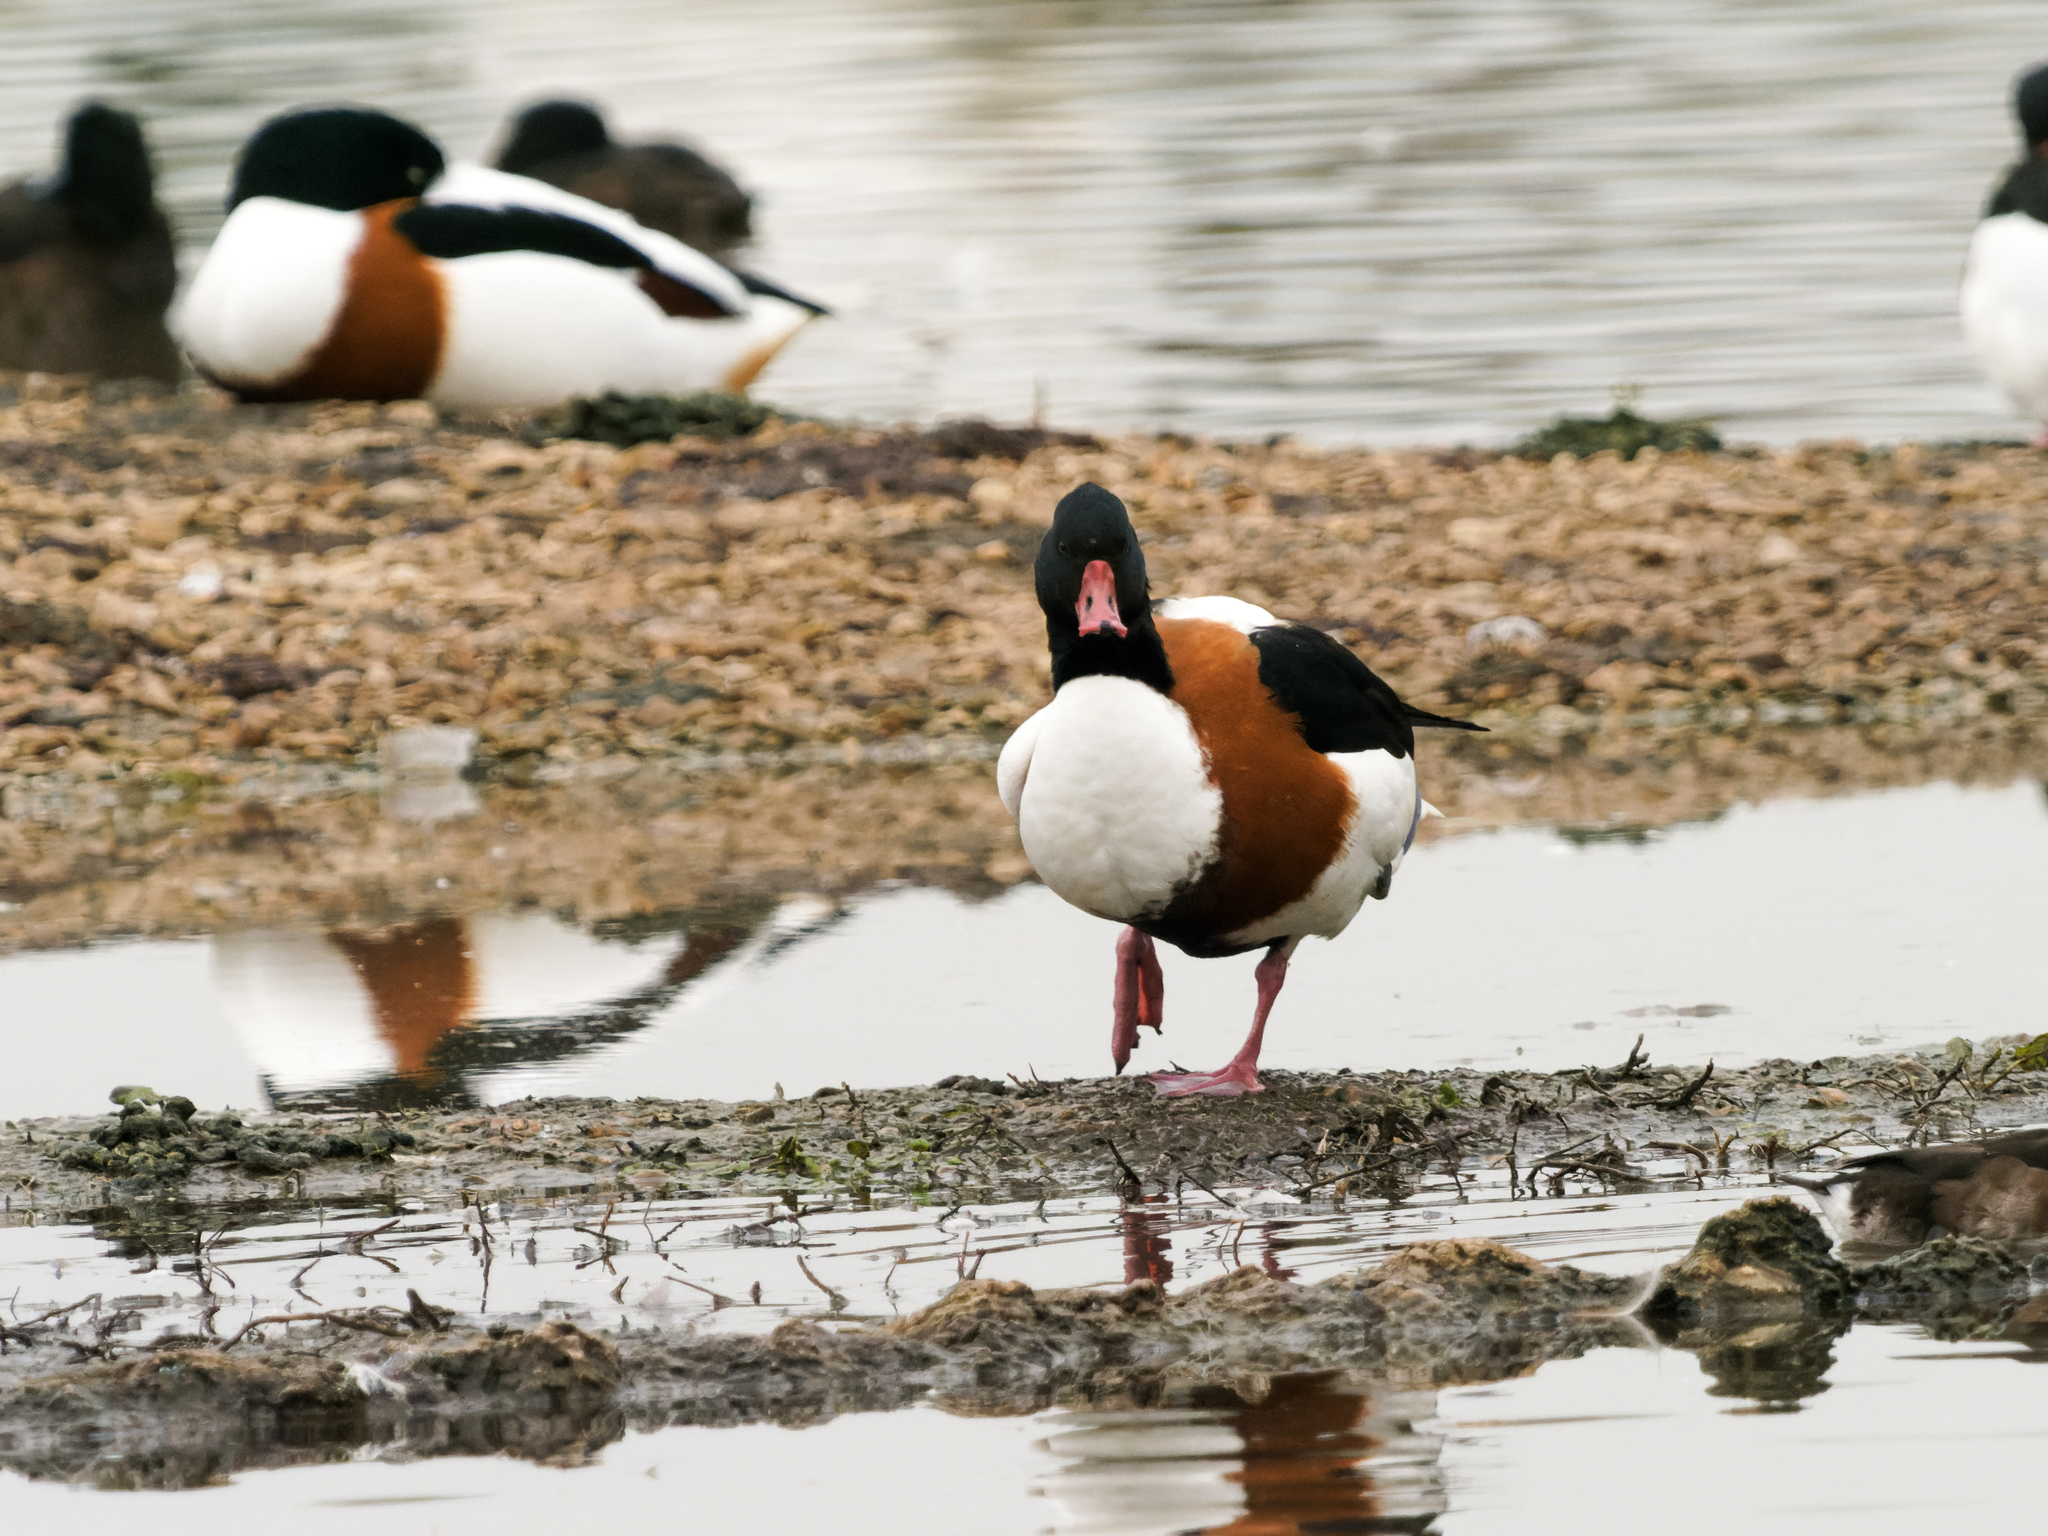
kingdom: Animalia
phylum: Chordata
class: Aves
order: Anseriformes
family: Anatidae
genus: Tadorna
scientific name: Tadorna tadorna
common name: Common shelduck
